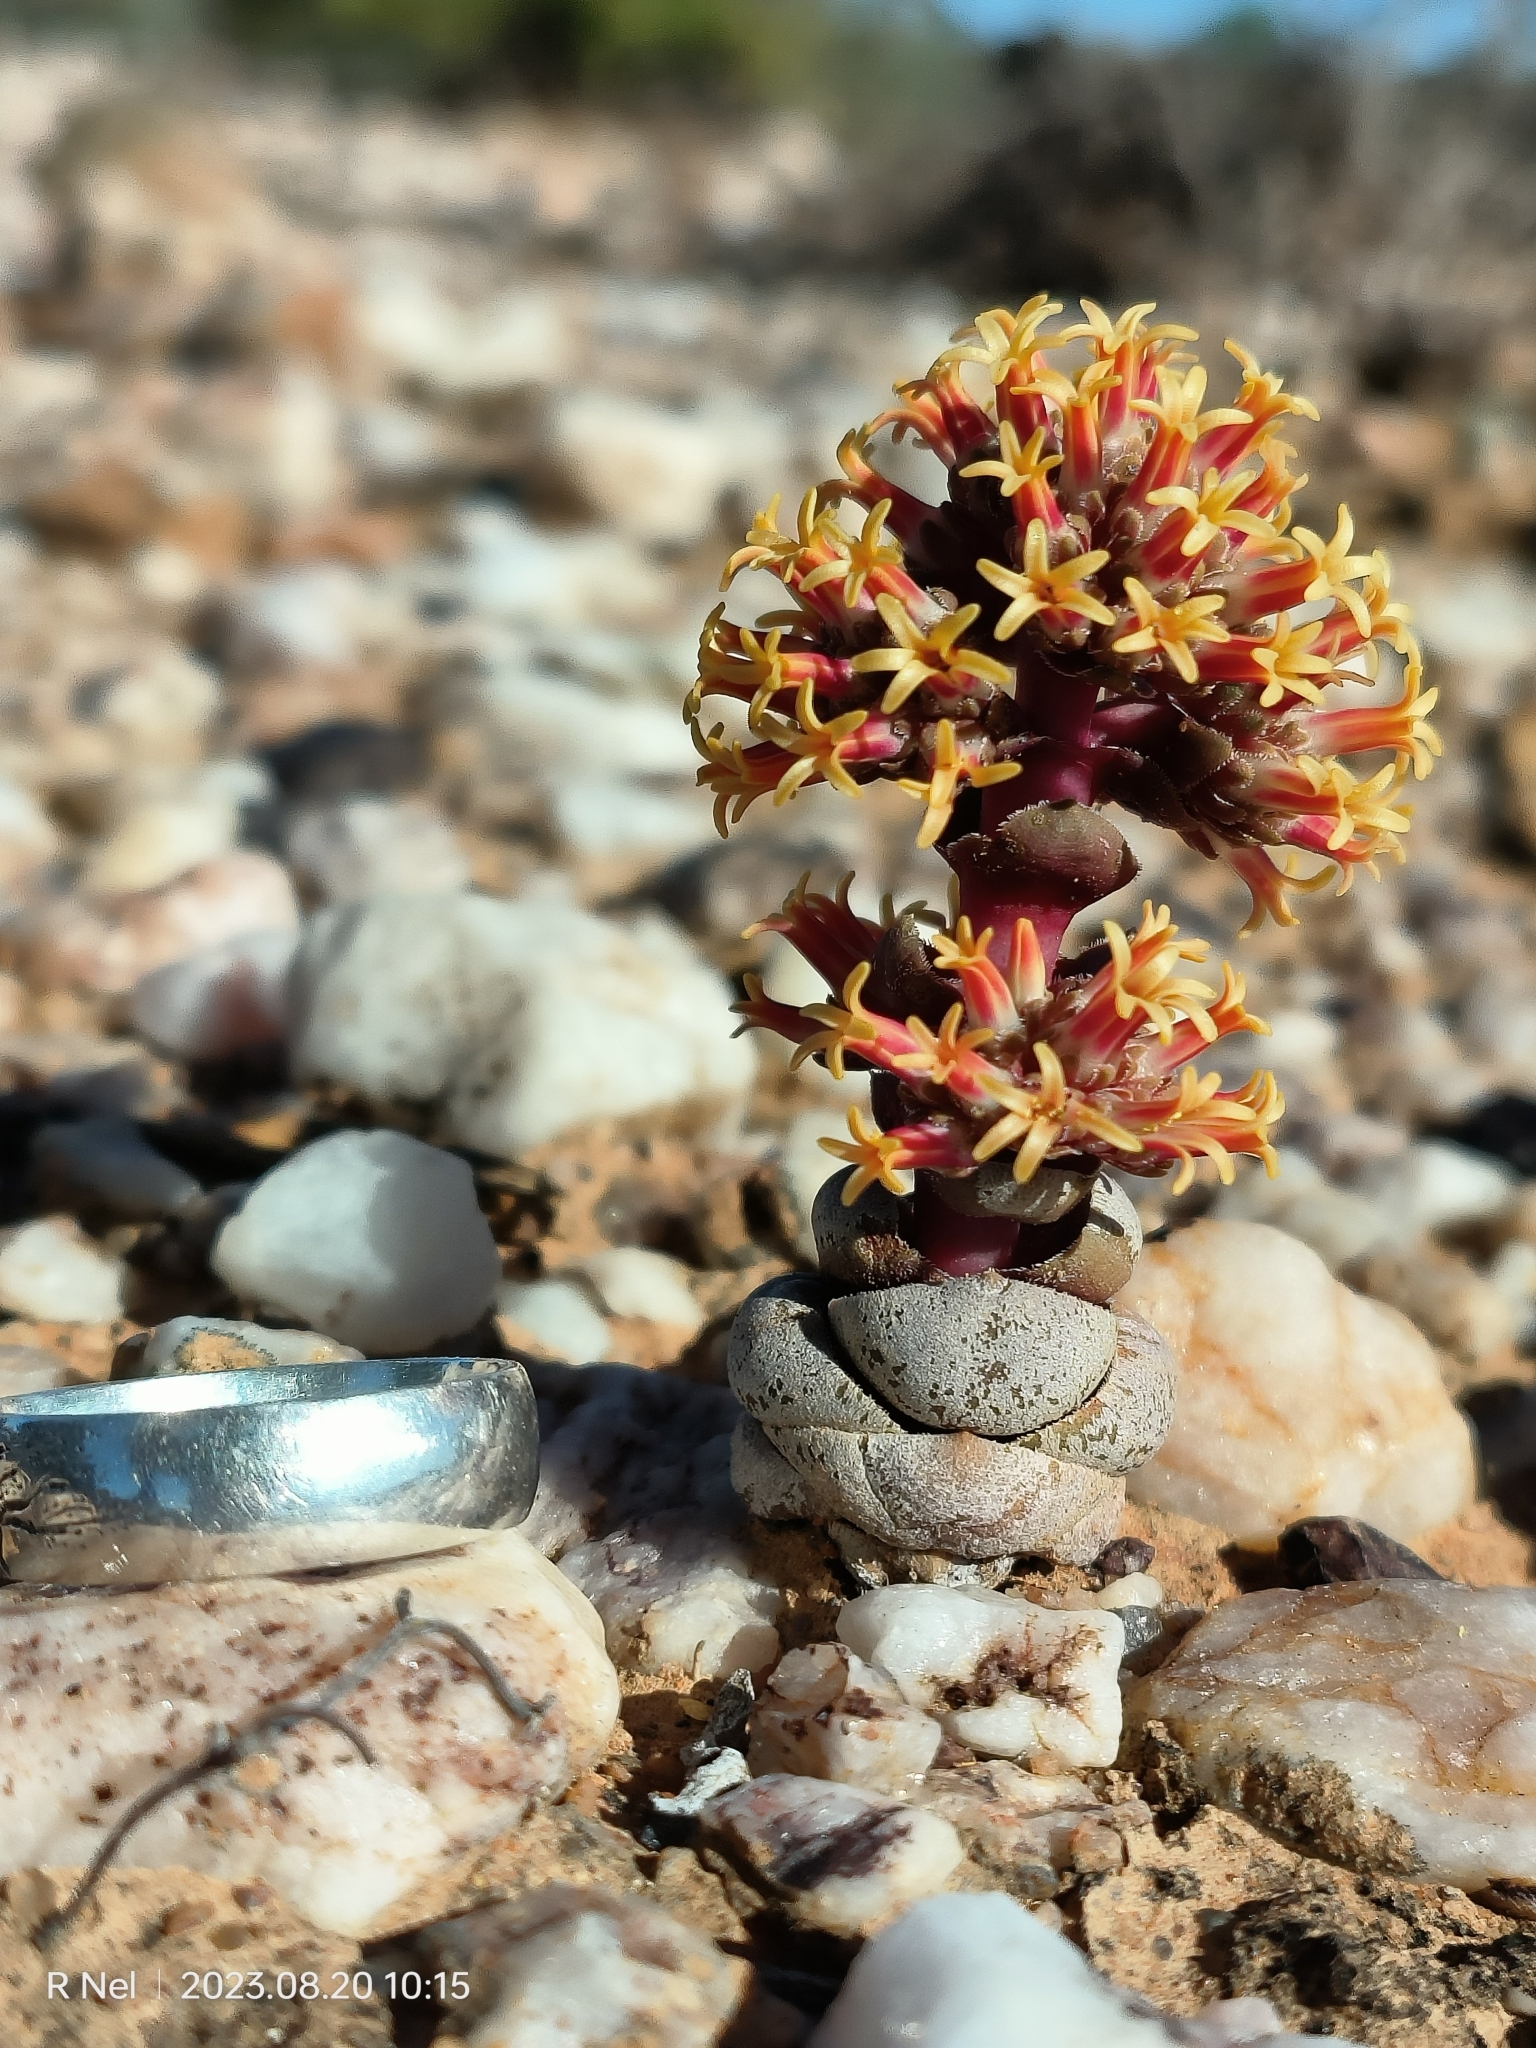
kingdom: Plantae
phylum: Tracheophyta
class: Magnoliopsida
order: Saxifragales
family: Crassulaceae
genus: Crassula
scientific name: Crassula columnaris
